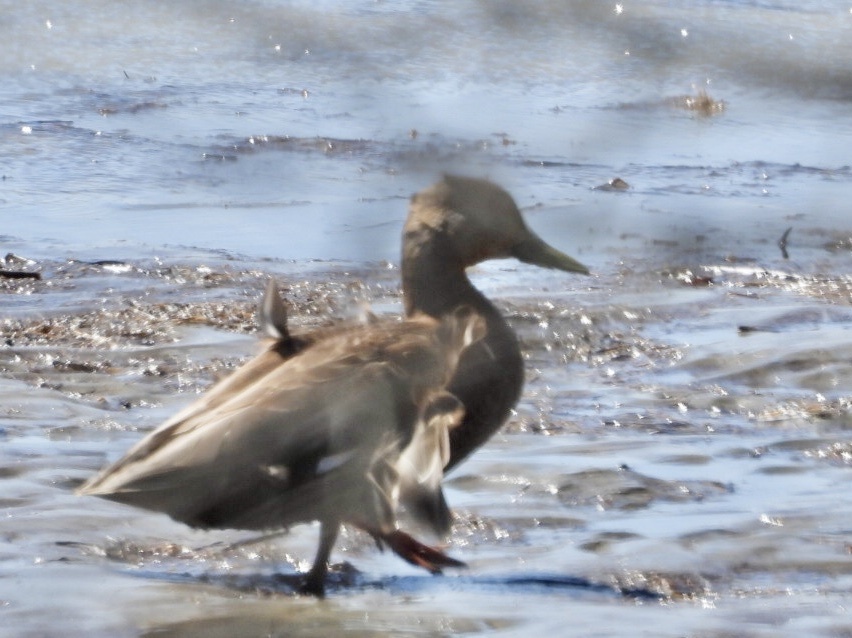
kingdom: Animalia
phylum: Chordata
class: Aves
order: Anseriformes
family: Anatidae
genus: Anas
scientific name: Anas rubripes
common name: American black duck
